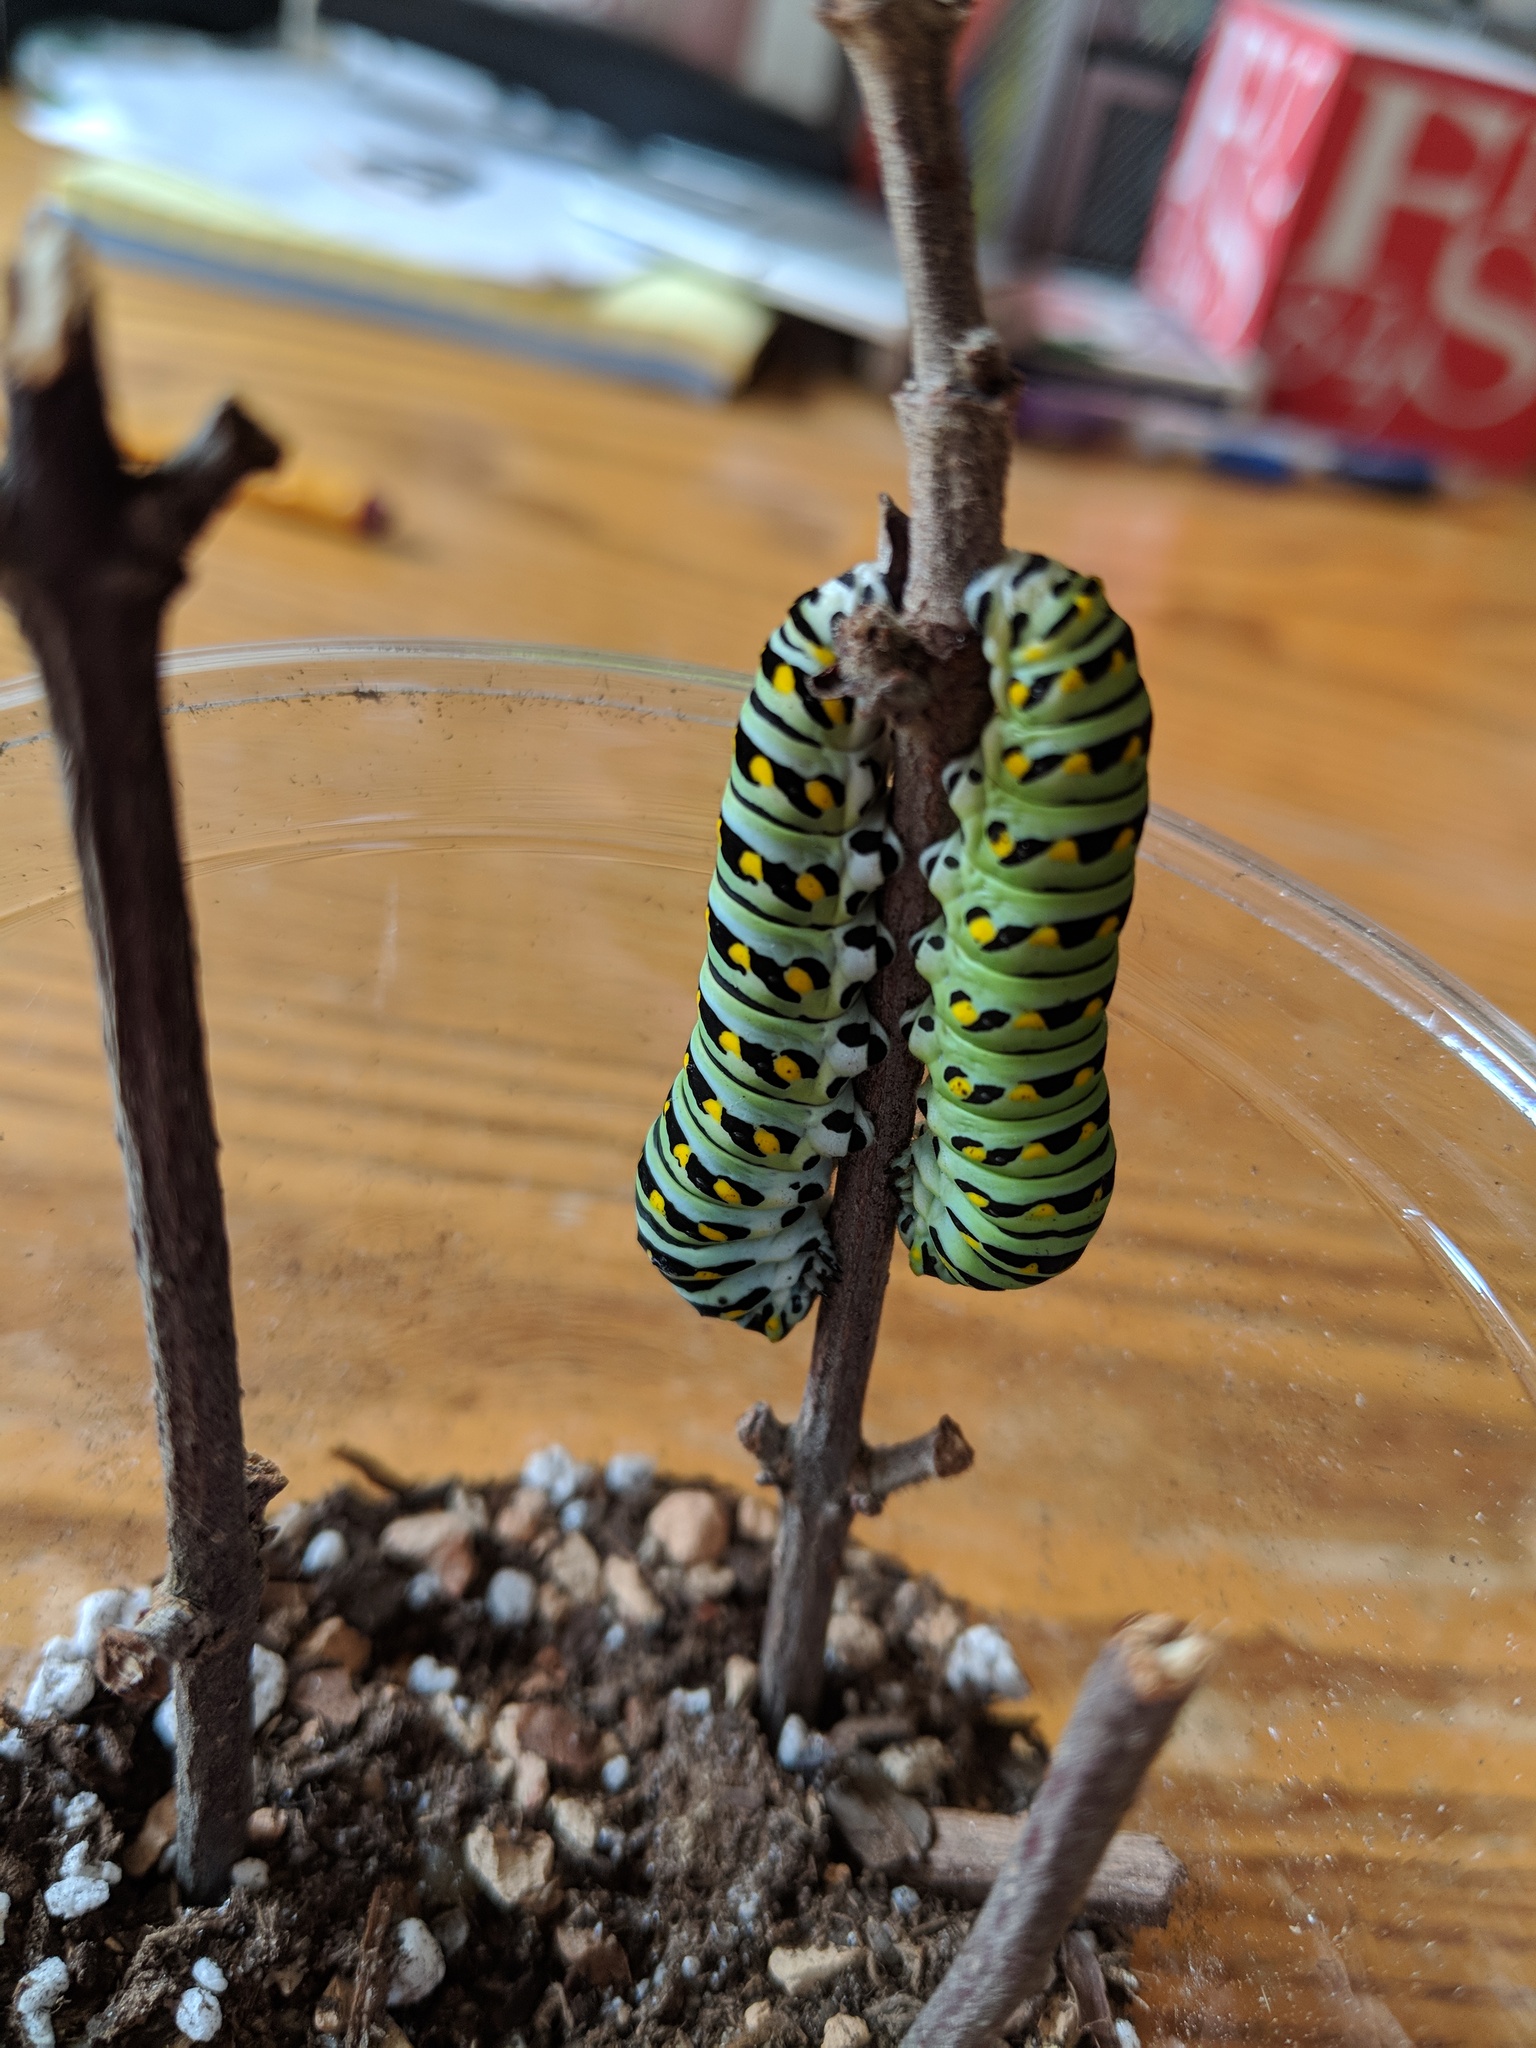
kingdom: Animalia
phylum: Arthropoda
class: Insecta
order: Lepidoptera
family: Papilionidae
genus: Papilio
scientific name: Papilio polyxenes
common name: Black swallowtail
